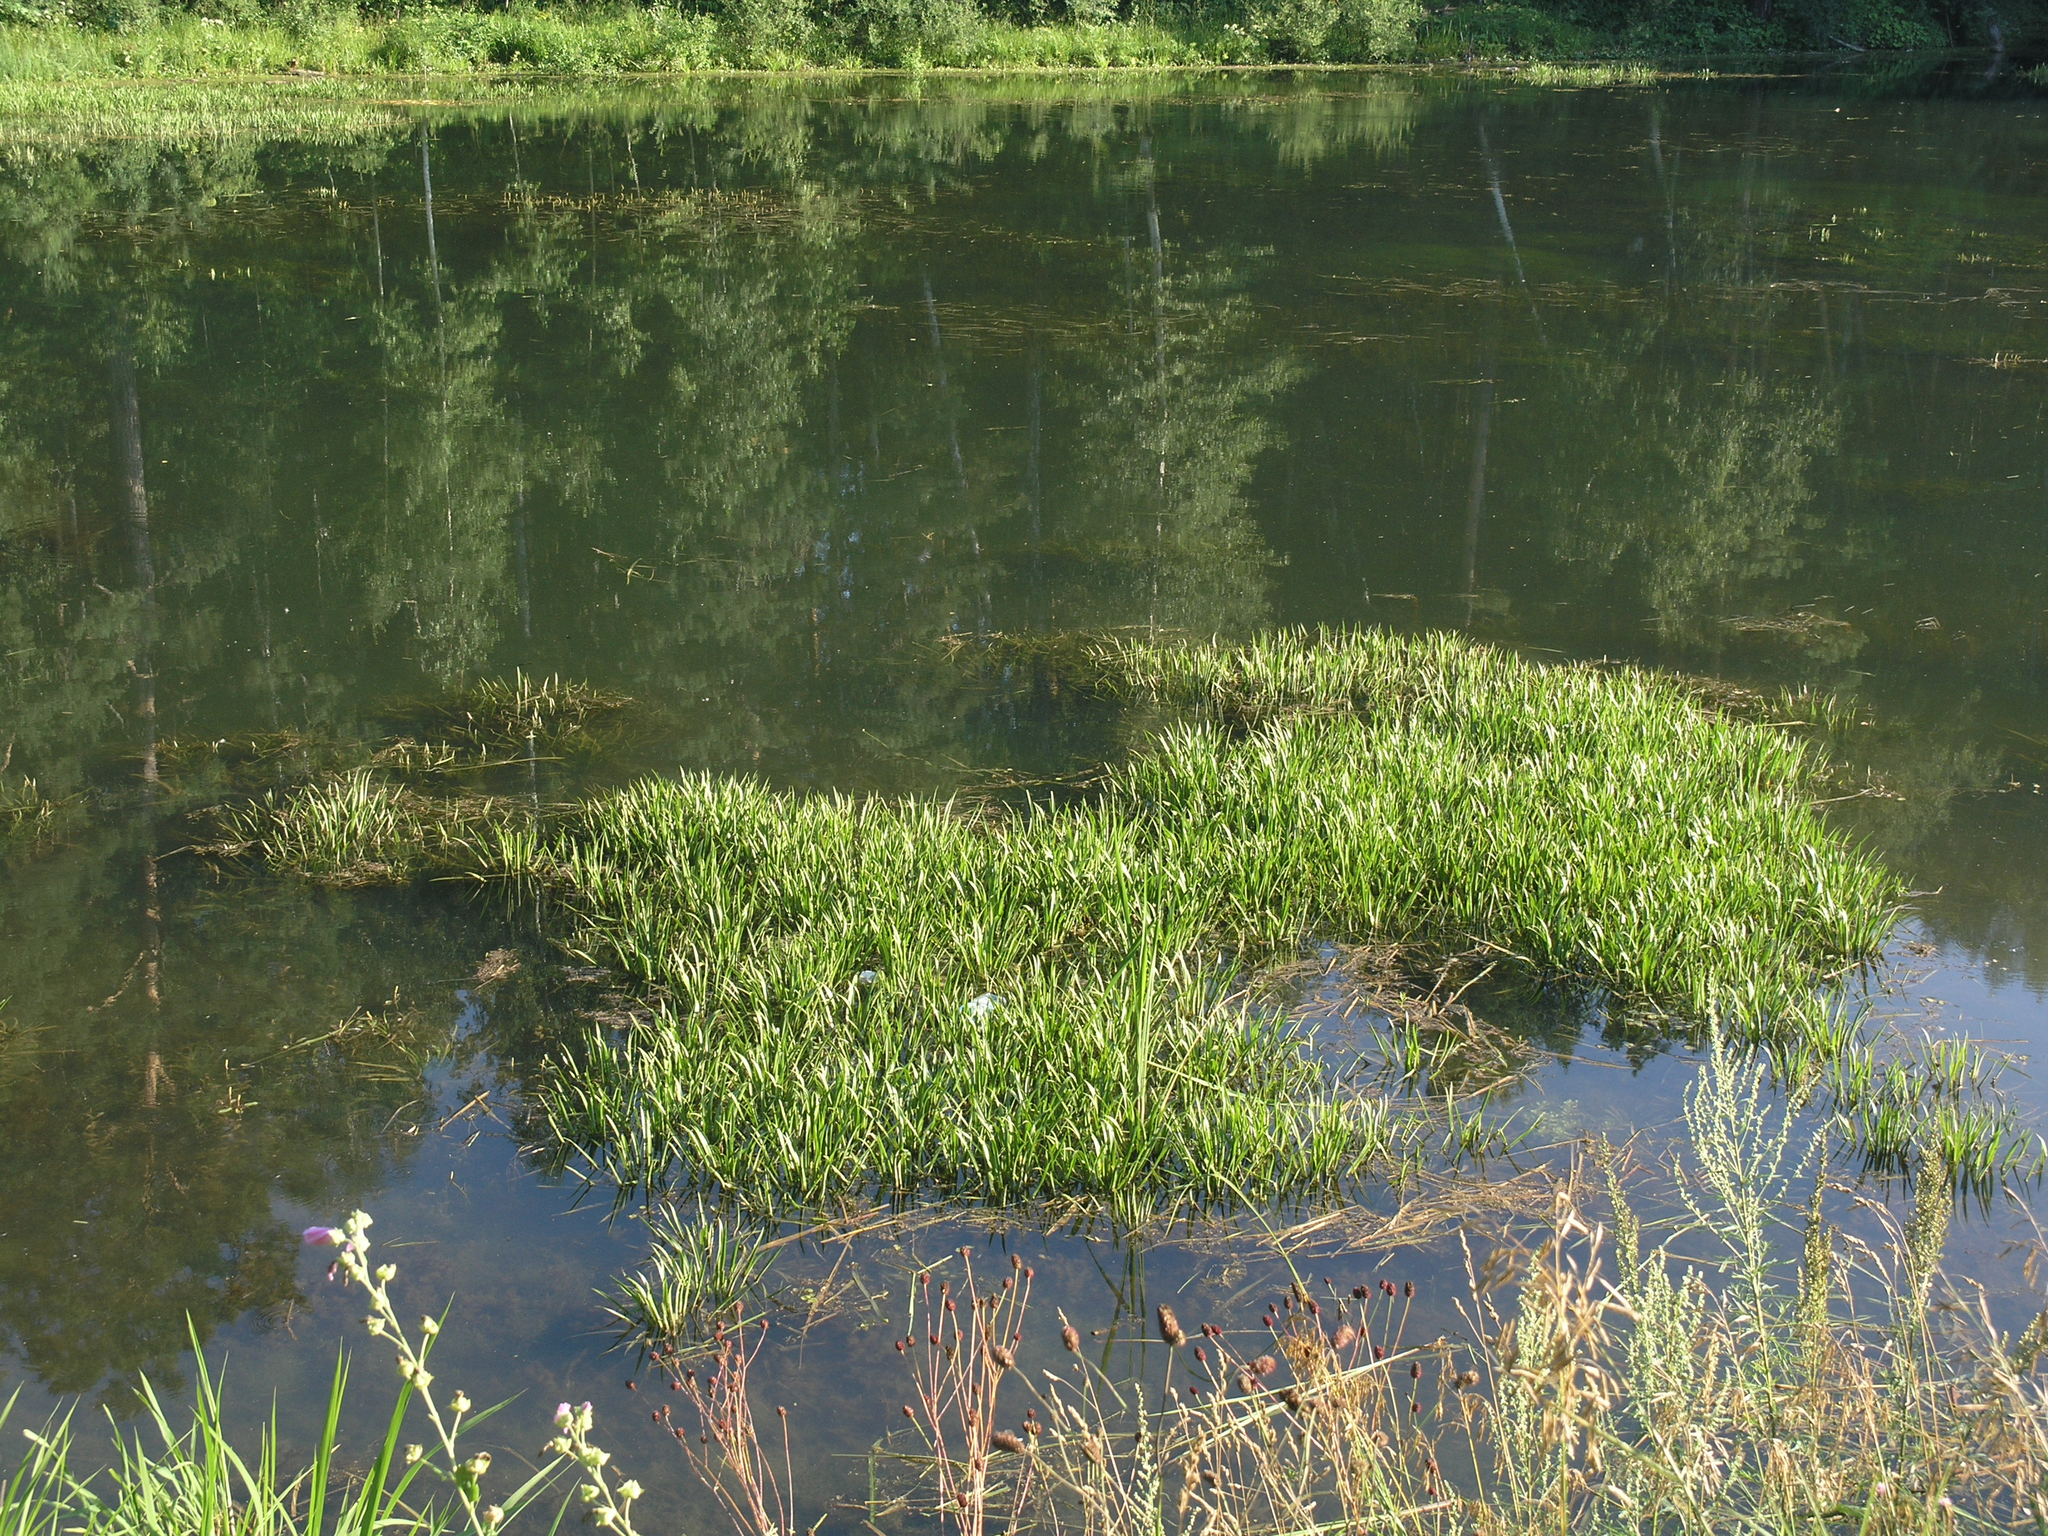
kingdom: Plantae
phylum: Tracheophyta
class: Liliopsida
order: Alismatales
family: Hydrocharitaceae
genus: Stratiotes
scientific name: Stratiotes aloides
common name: Water-soldier
